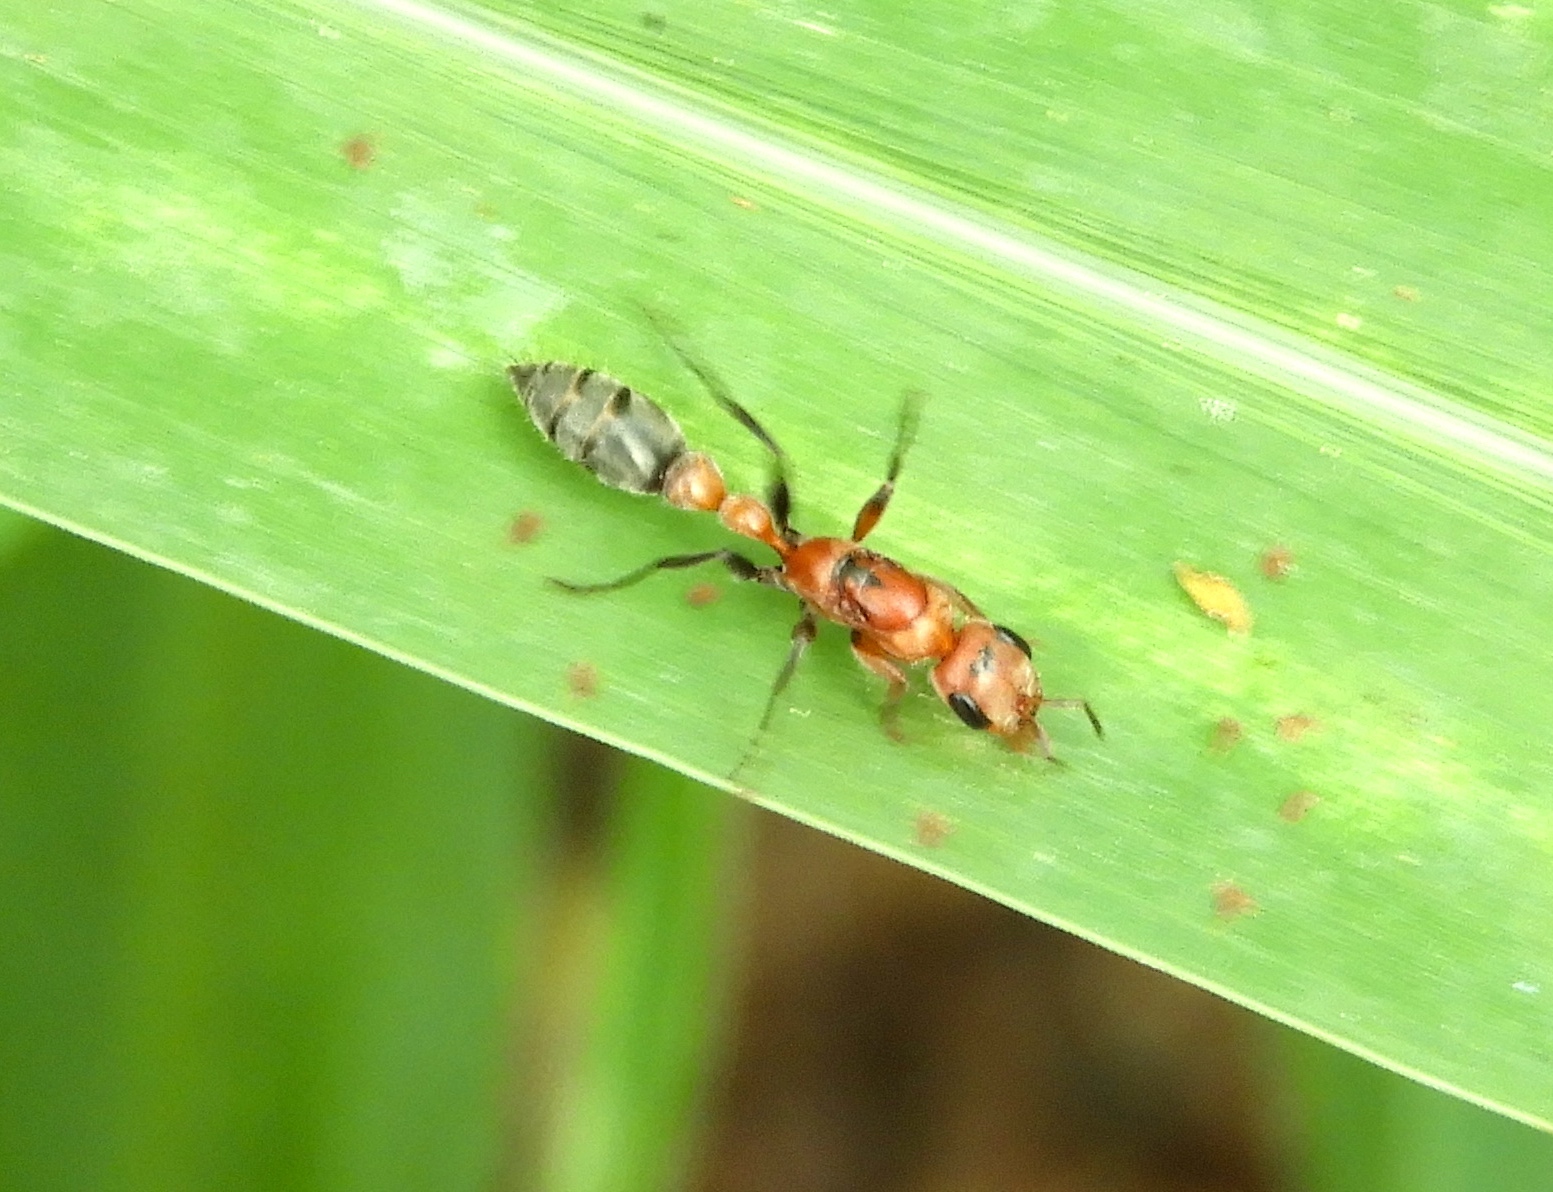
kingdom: Animalia
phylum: Arthropoda
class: Insecta
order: Hymenoptera
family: Formicidae
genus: Pseudomyrmex
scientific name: Pseudomyrmex
